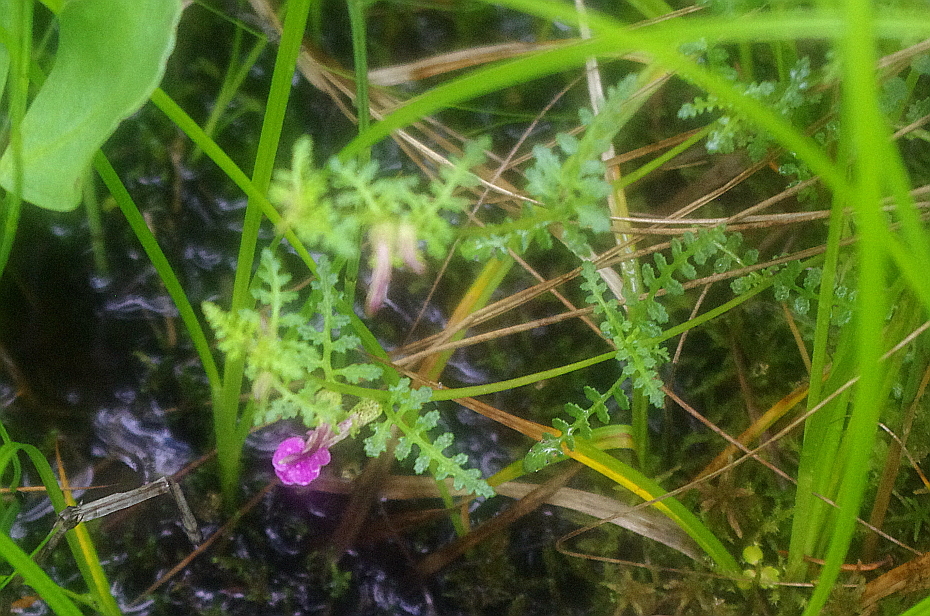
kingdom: Plantae
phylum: Tracheophyta
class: Magnoliopsida
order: Lamiales
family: Orobanchaceae
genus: Pedicularis
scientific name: Pedicularis palustris
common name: Marsh lousewort
